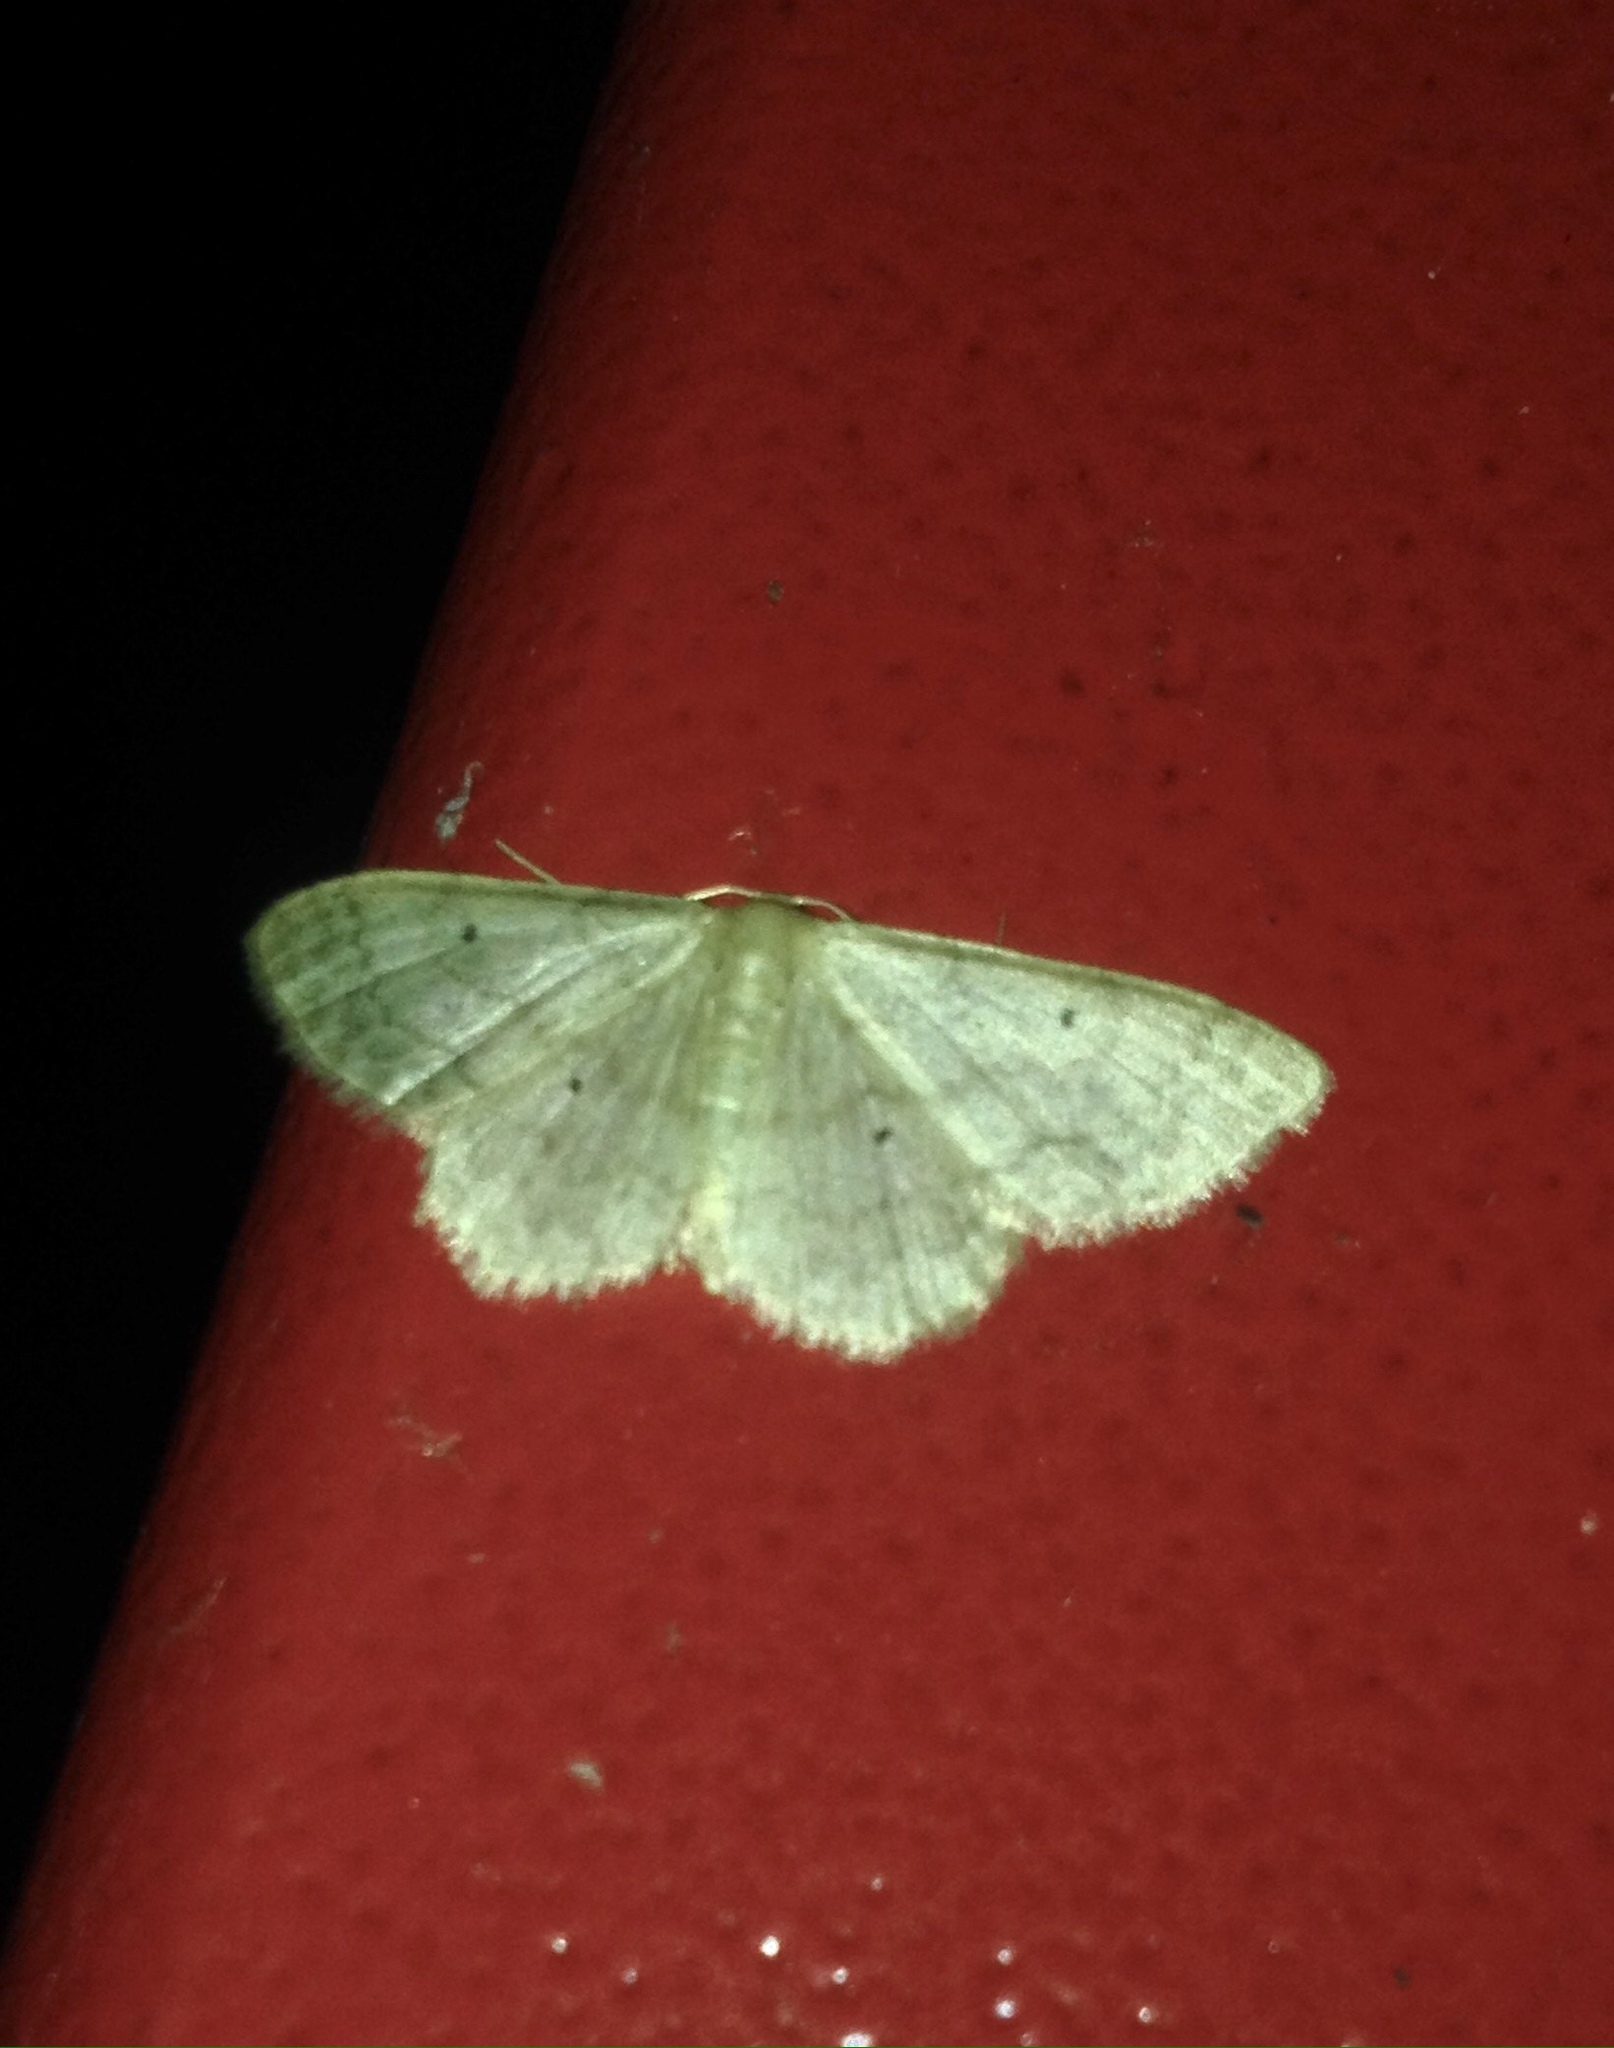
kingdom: Animalia
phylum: Arthropoda
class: Insecta
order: Lepidoptera
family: Geometridae
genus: Idaea
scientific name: Idaea biselata
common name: Small fan-footed wave
